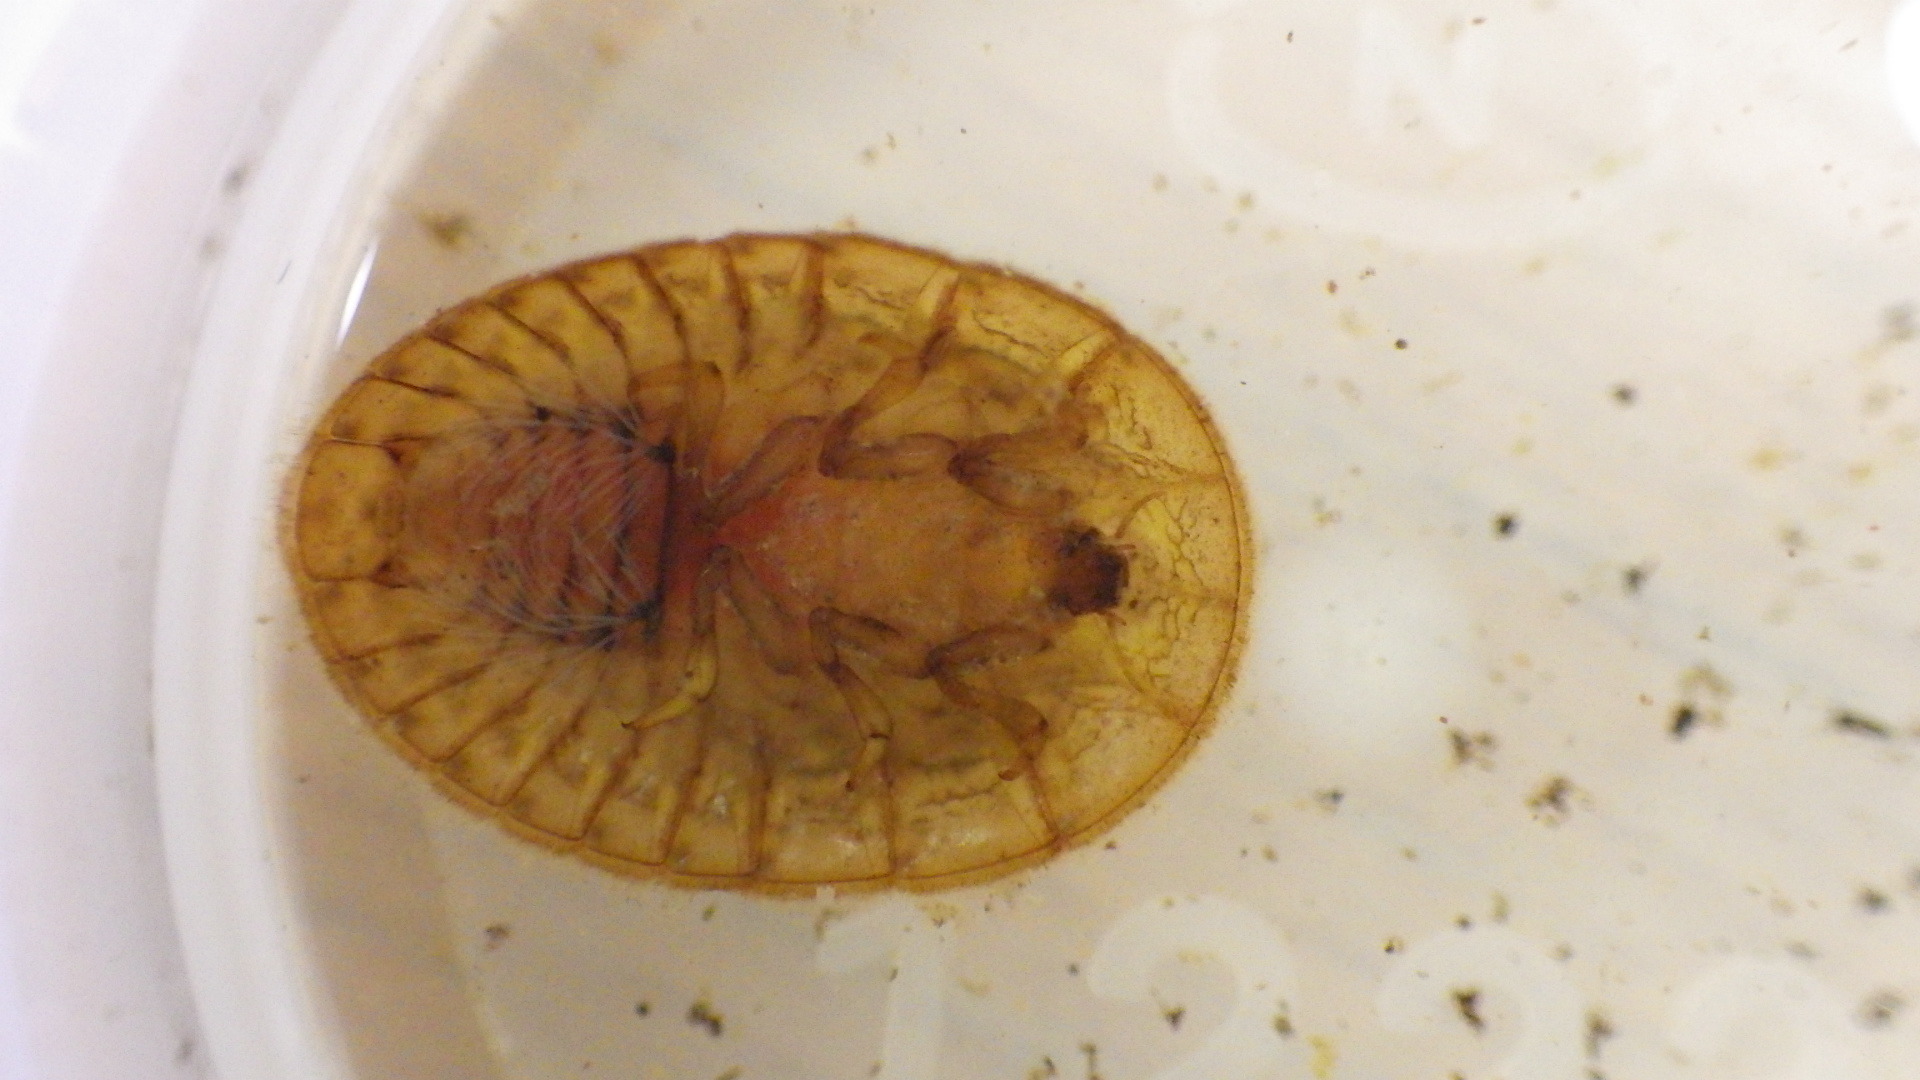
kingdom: Animalia
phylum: Arthropoda
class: Insecta
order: Coleoptera
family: Psephenidae
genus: Psephenus
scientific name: Psephenus herricki
